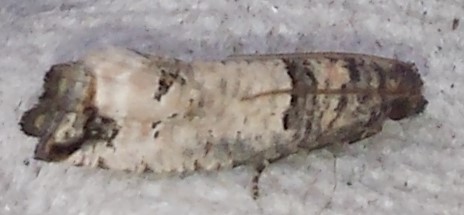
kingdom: Animalia
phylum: Arthropoda
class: Insecta
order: Lepidoptera
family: Tortricidae
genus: Notocelia
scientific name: Notocelia culminana
